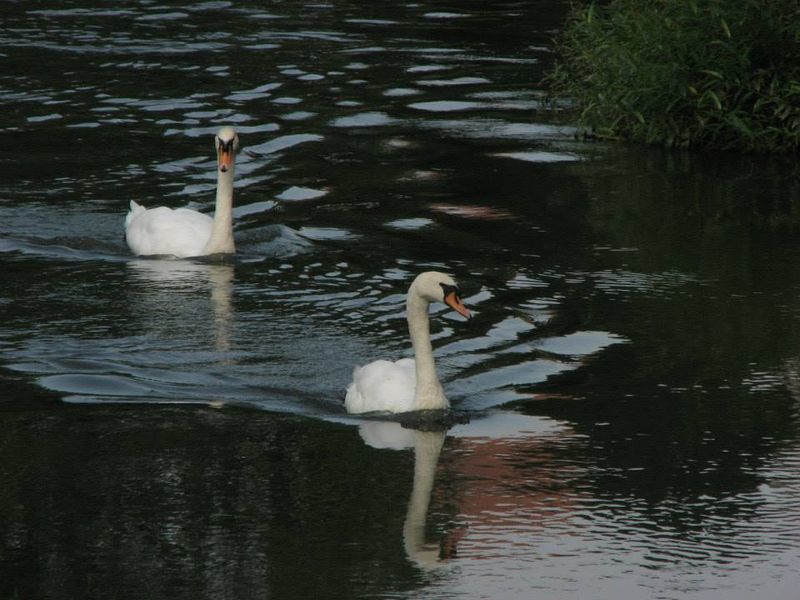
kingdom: Animalia
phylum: Chordata
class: Aves
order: Anseriformes
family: Anatidae
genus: Cygnus
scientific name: Cygnus olor
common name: Mute swan
